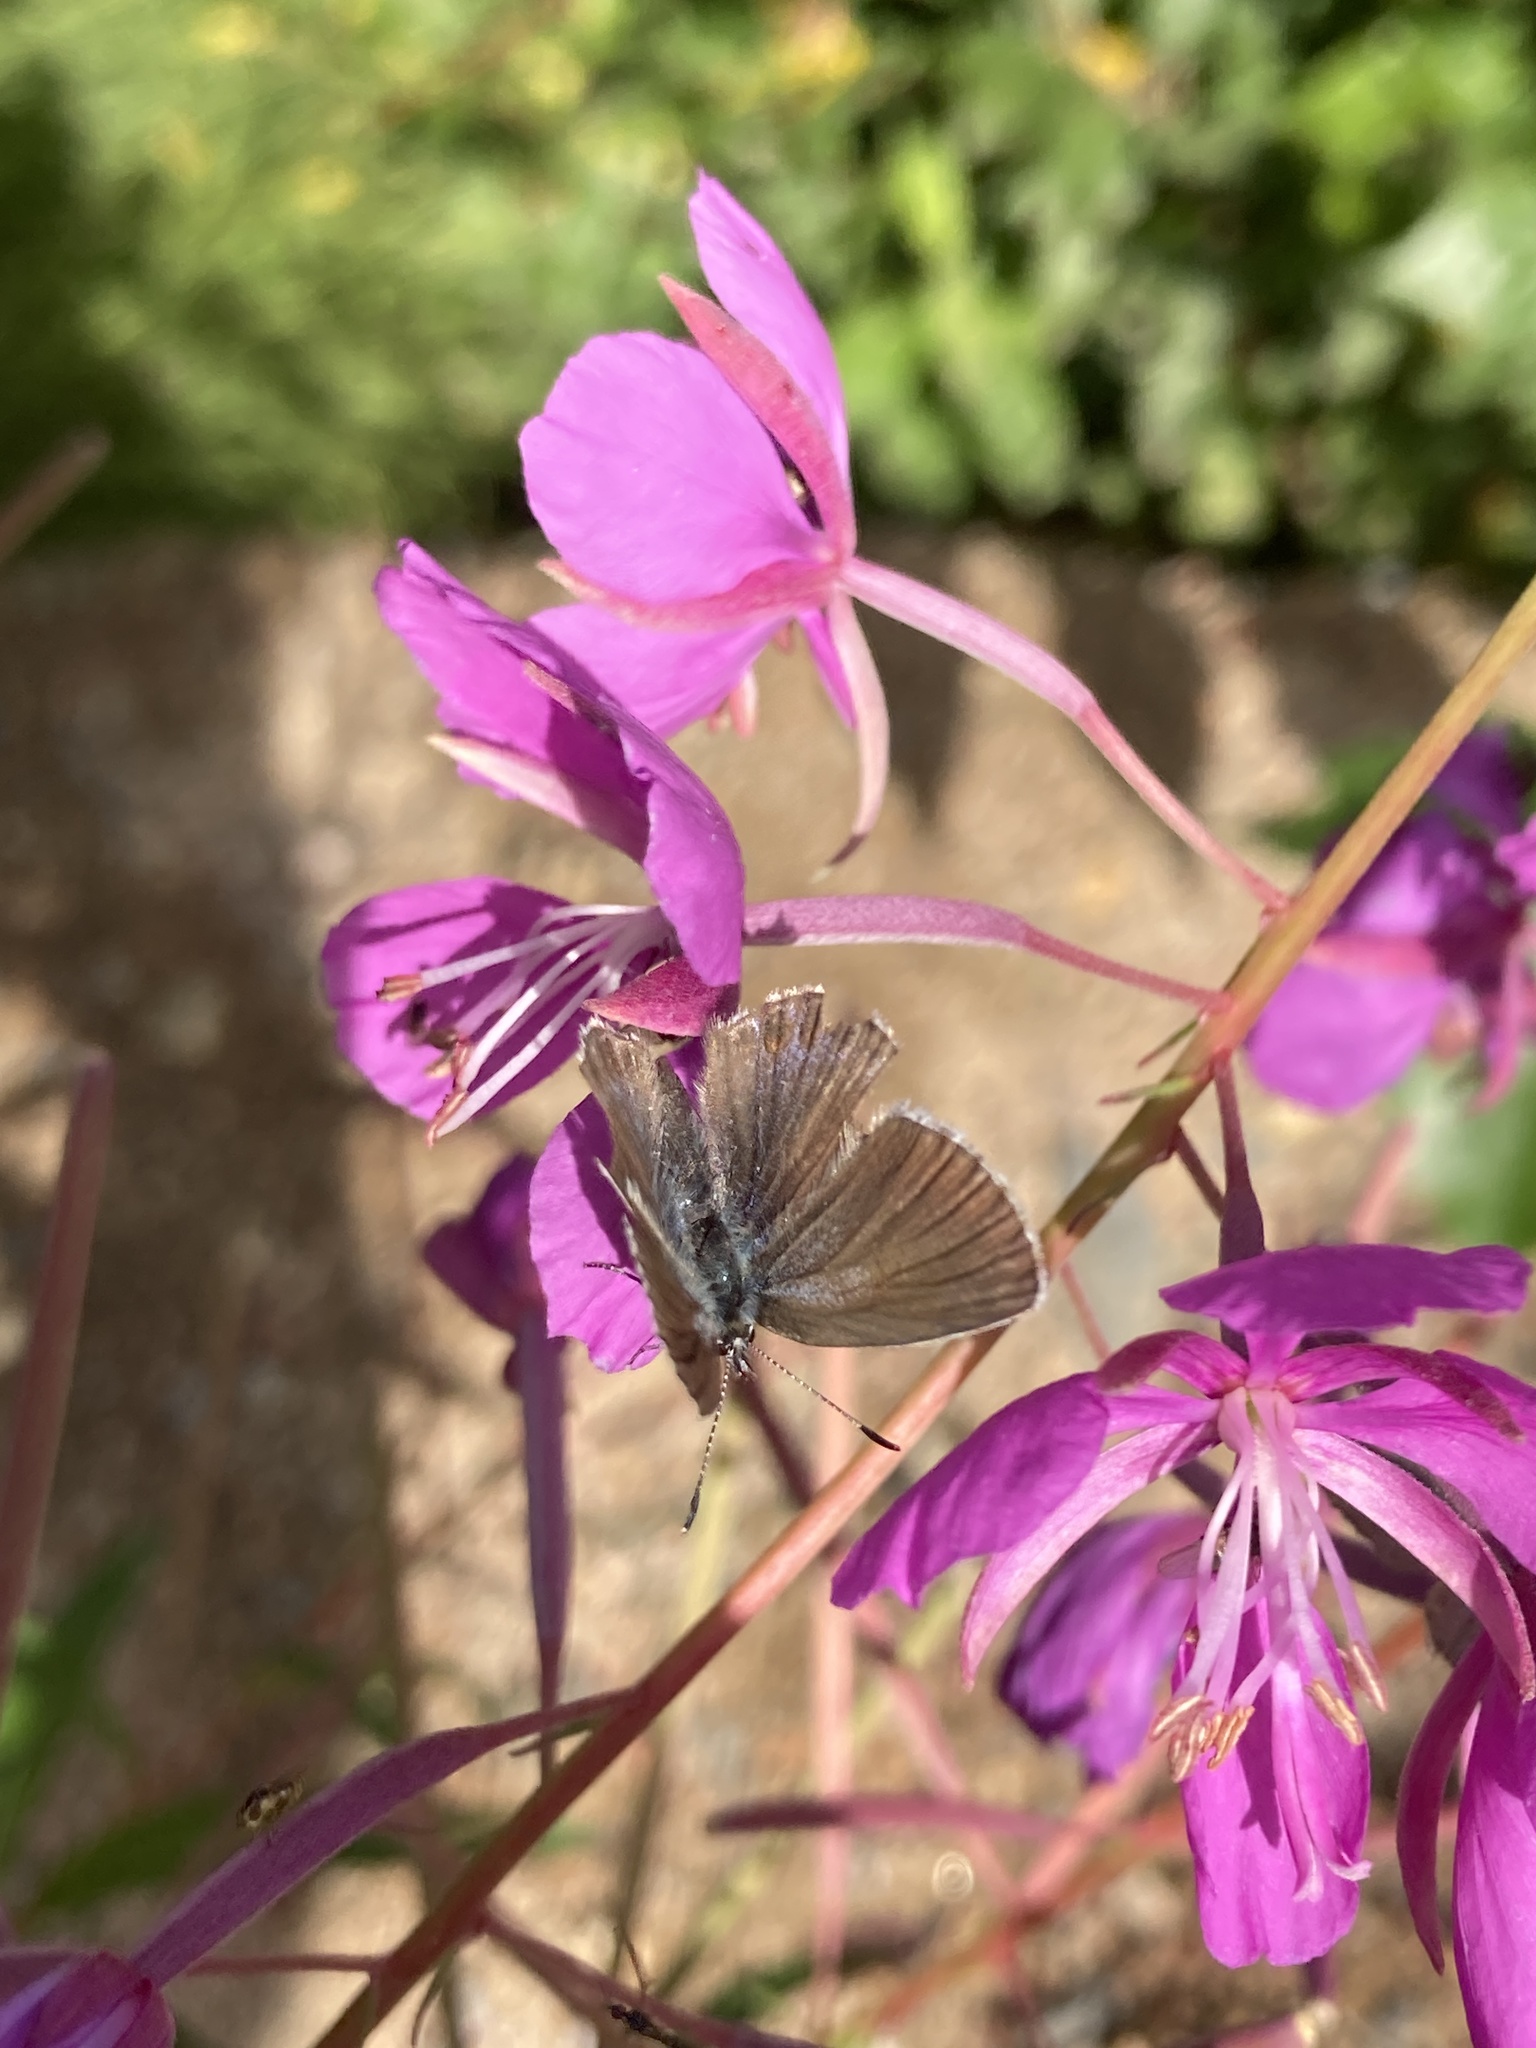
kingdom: Animalia
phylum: Arthropoda
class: Insecta
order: Lepidoptera
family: Lycaenidae
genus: Lycaeides
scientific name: Lycaeides idas
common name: Northern blue
